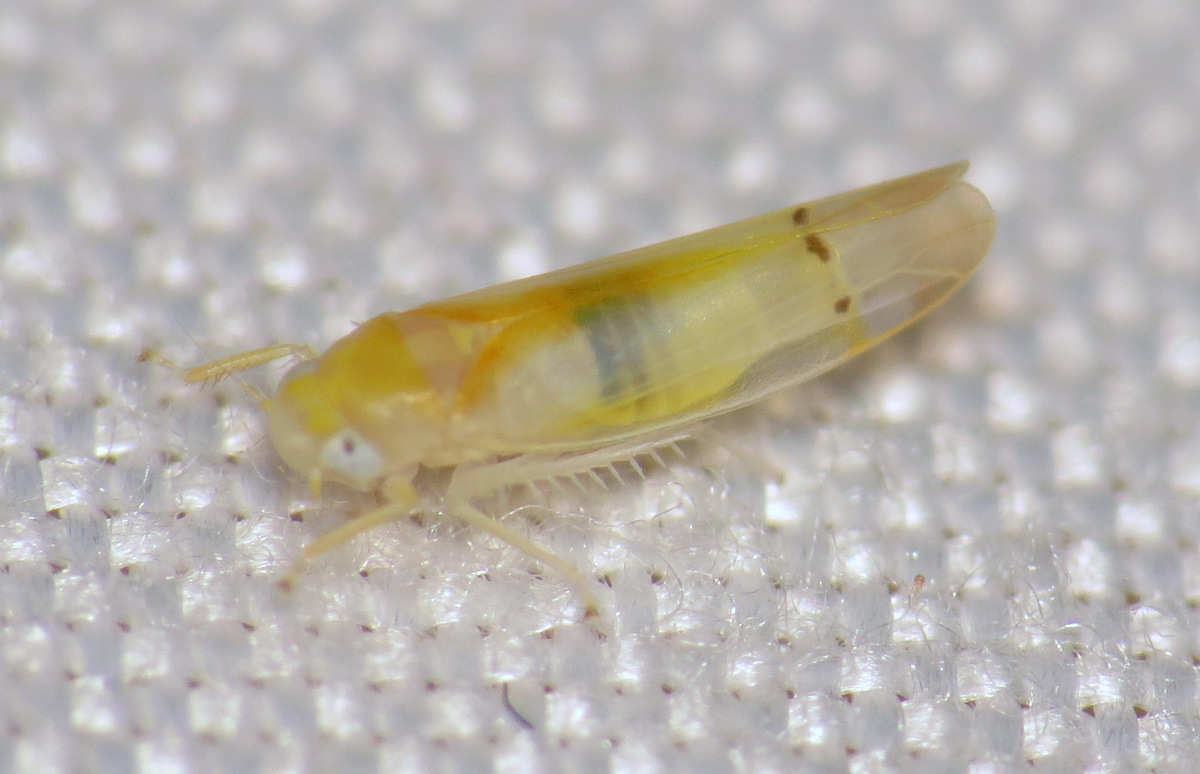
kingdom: Animalia
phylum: Arthropoda
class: Insecta
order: Hemiptera
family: Cicadellidae
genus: Ossiannilssonola
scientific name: Ossiannilssonola australis
